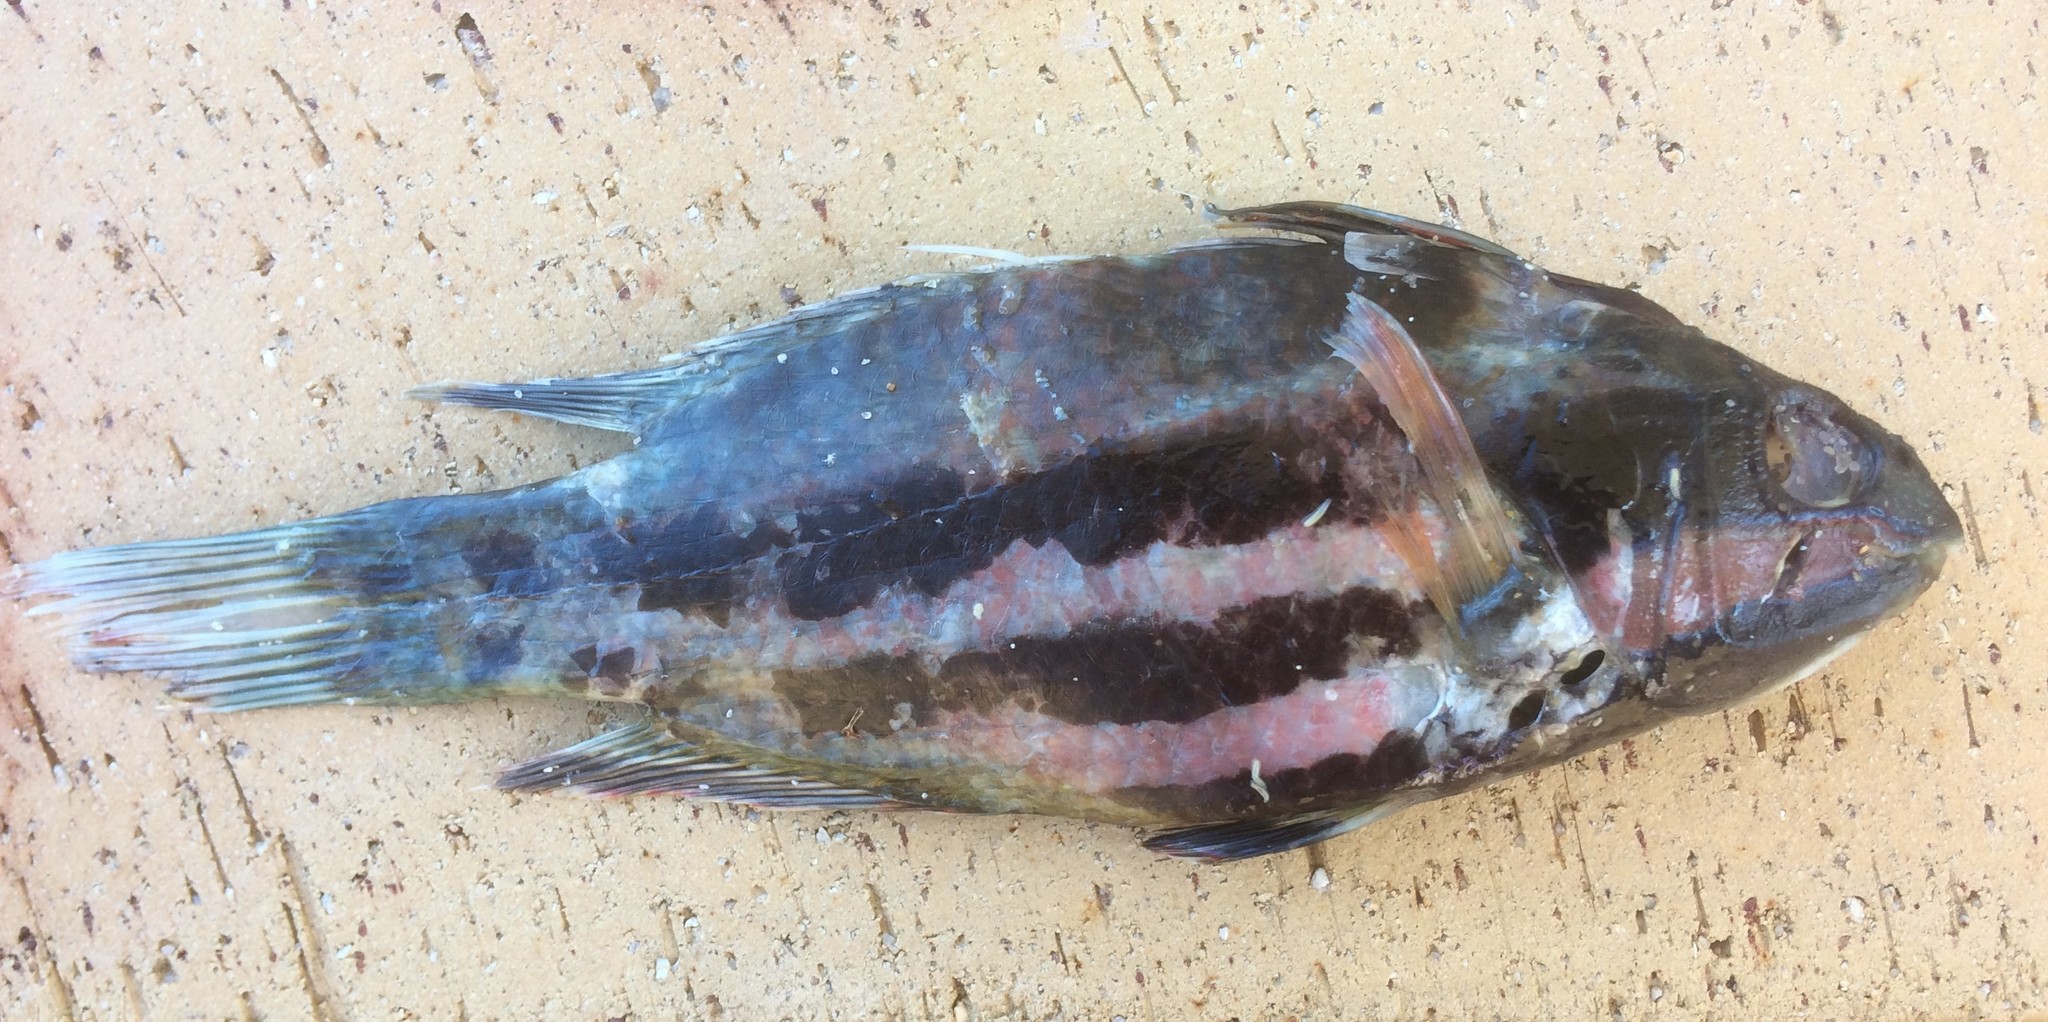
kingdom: Animalia
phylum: Chordata
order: Perciformes
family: Odacidae
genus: Heteroscarus
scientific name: Heteroscarus acroptilus
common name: Marine rainbowfish
